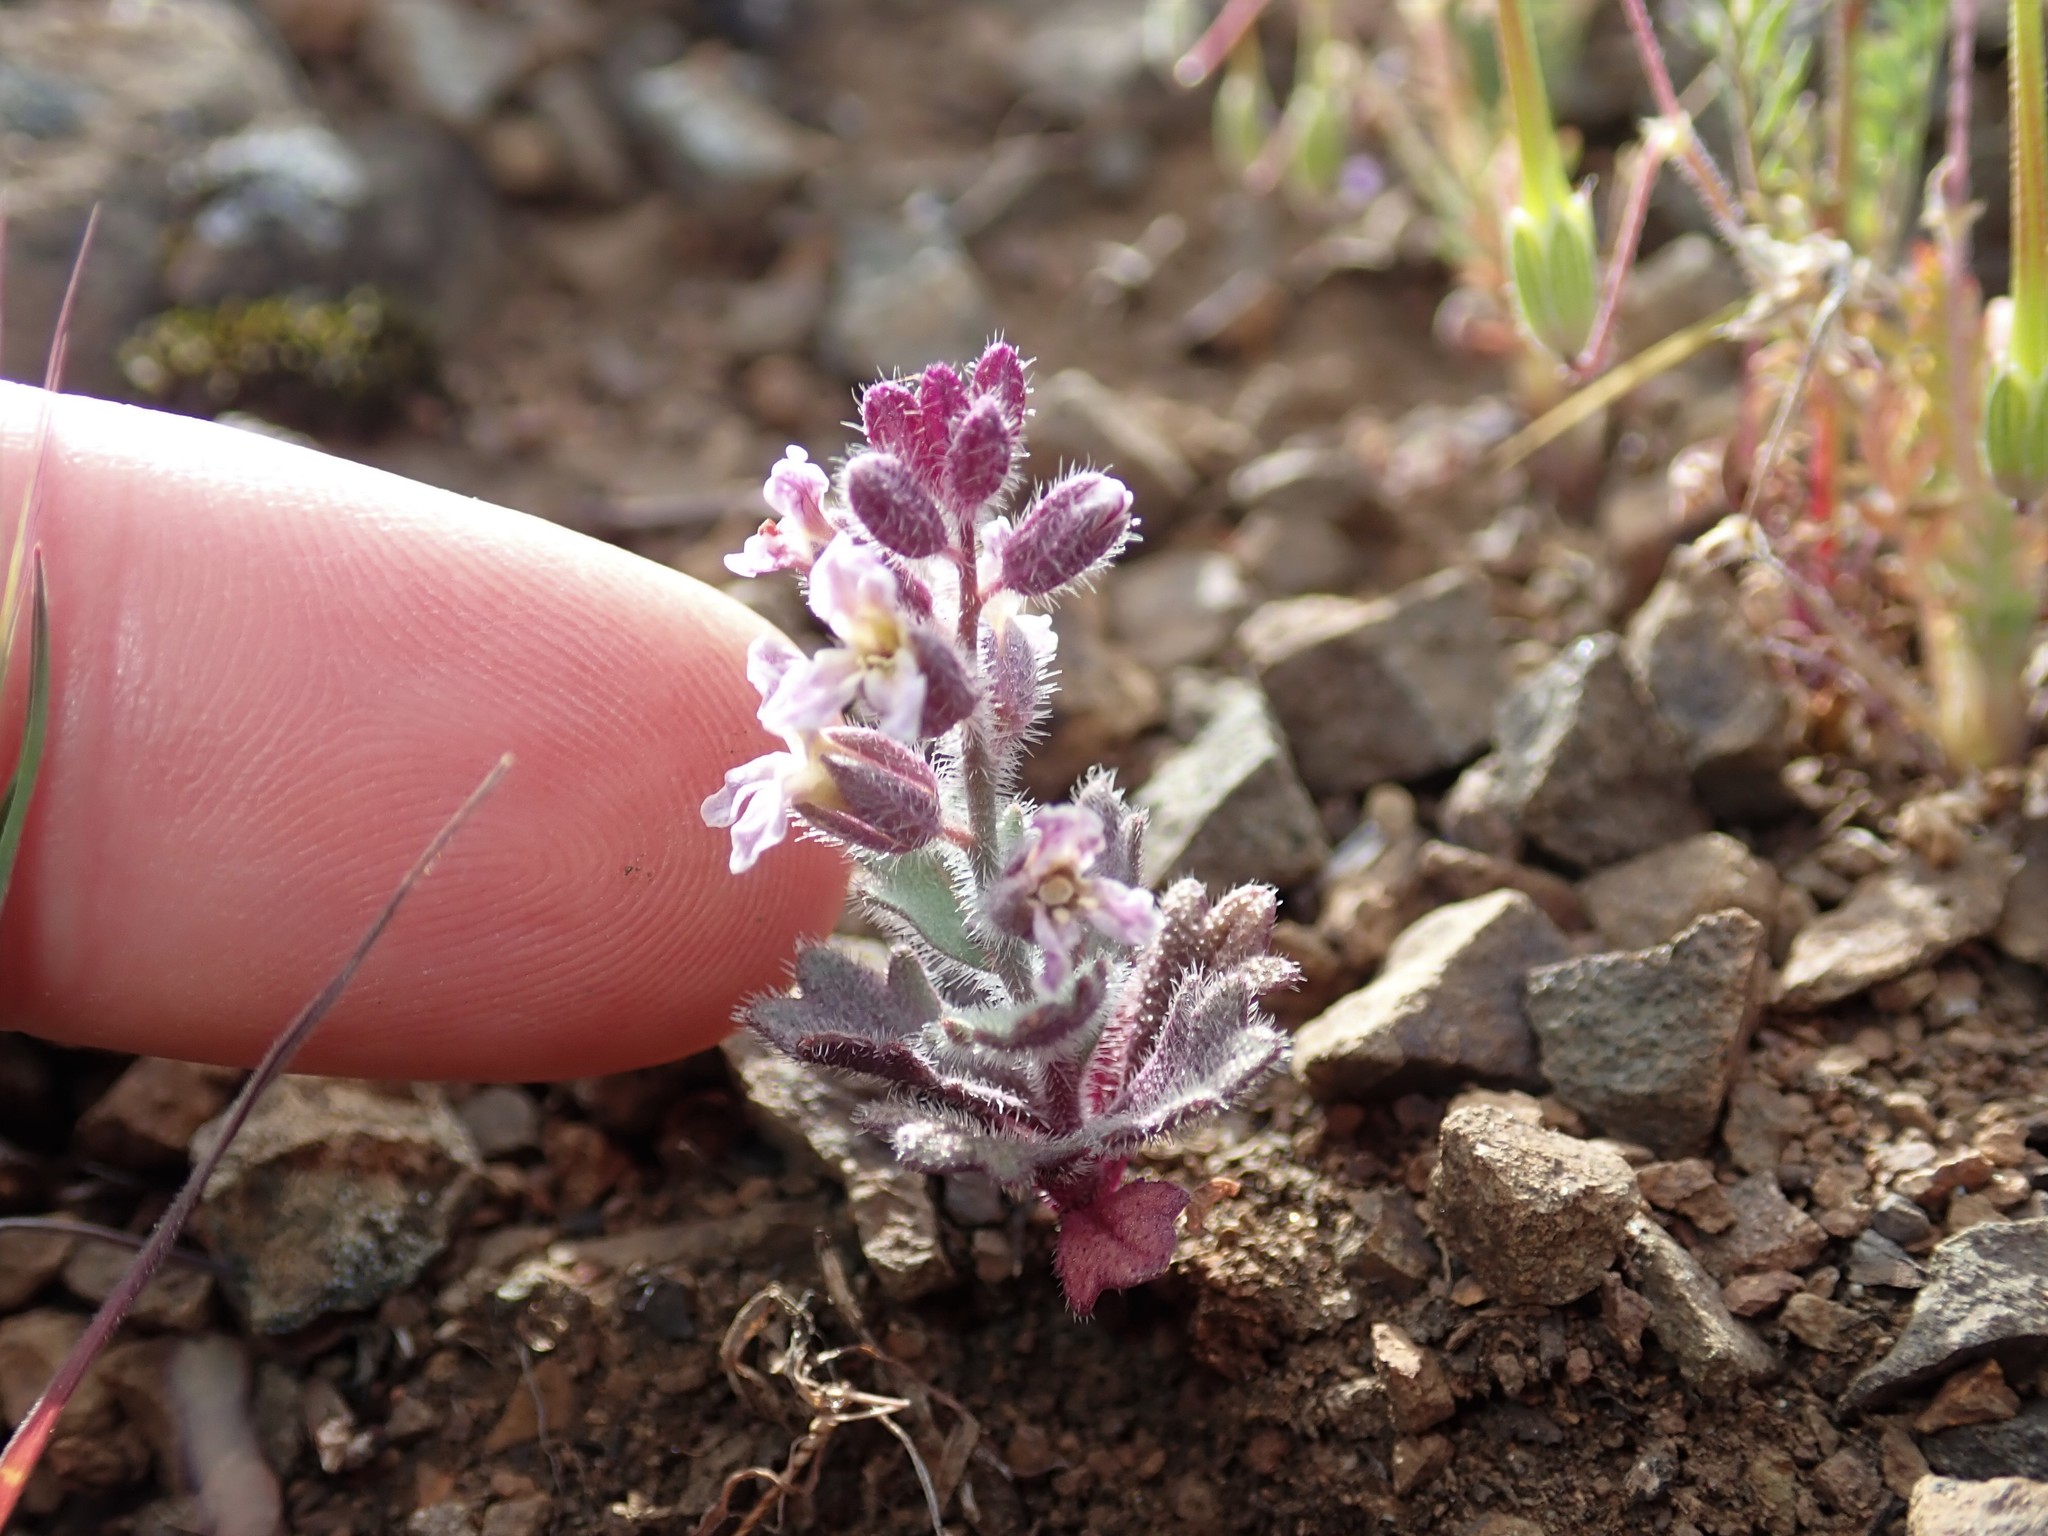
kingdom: Plantae
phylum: Tracheophyta
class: Magnoliopsida
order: Brassicales
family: Brassicaceae
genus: Streptanthus
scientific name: Streptanthus hispidus
